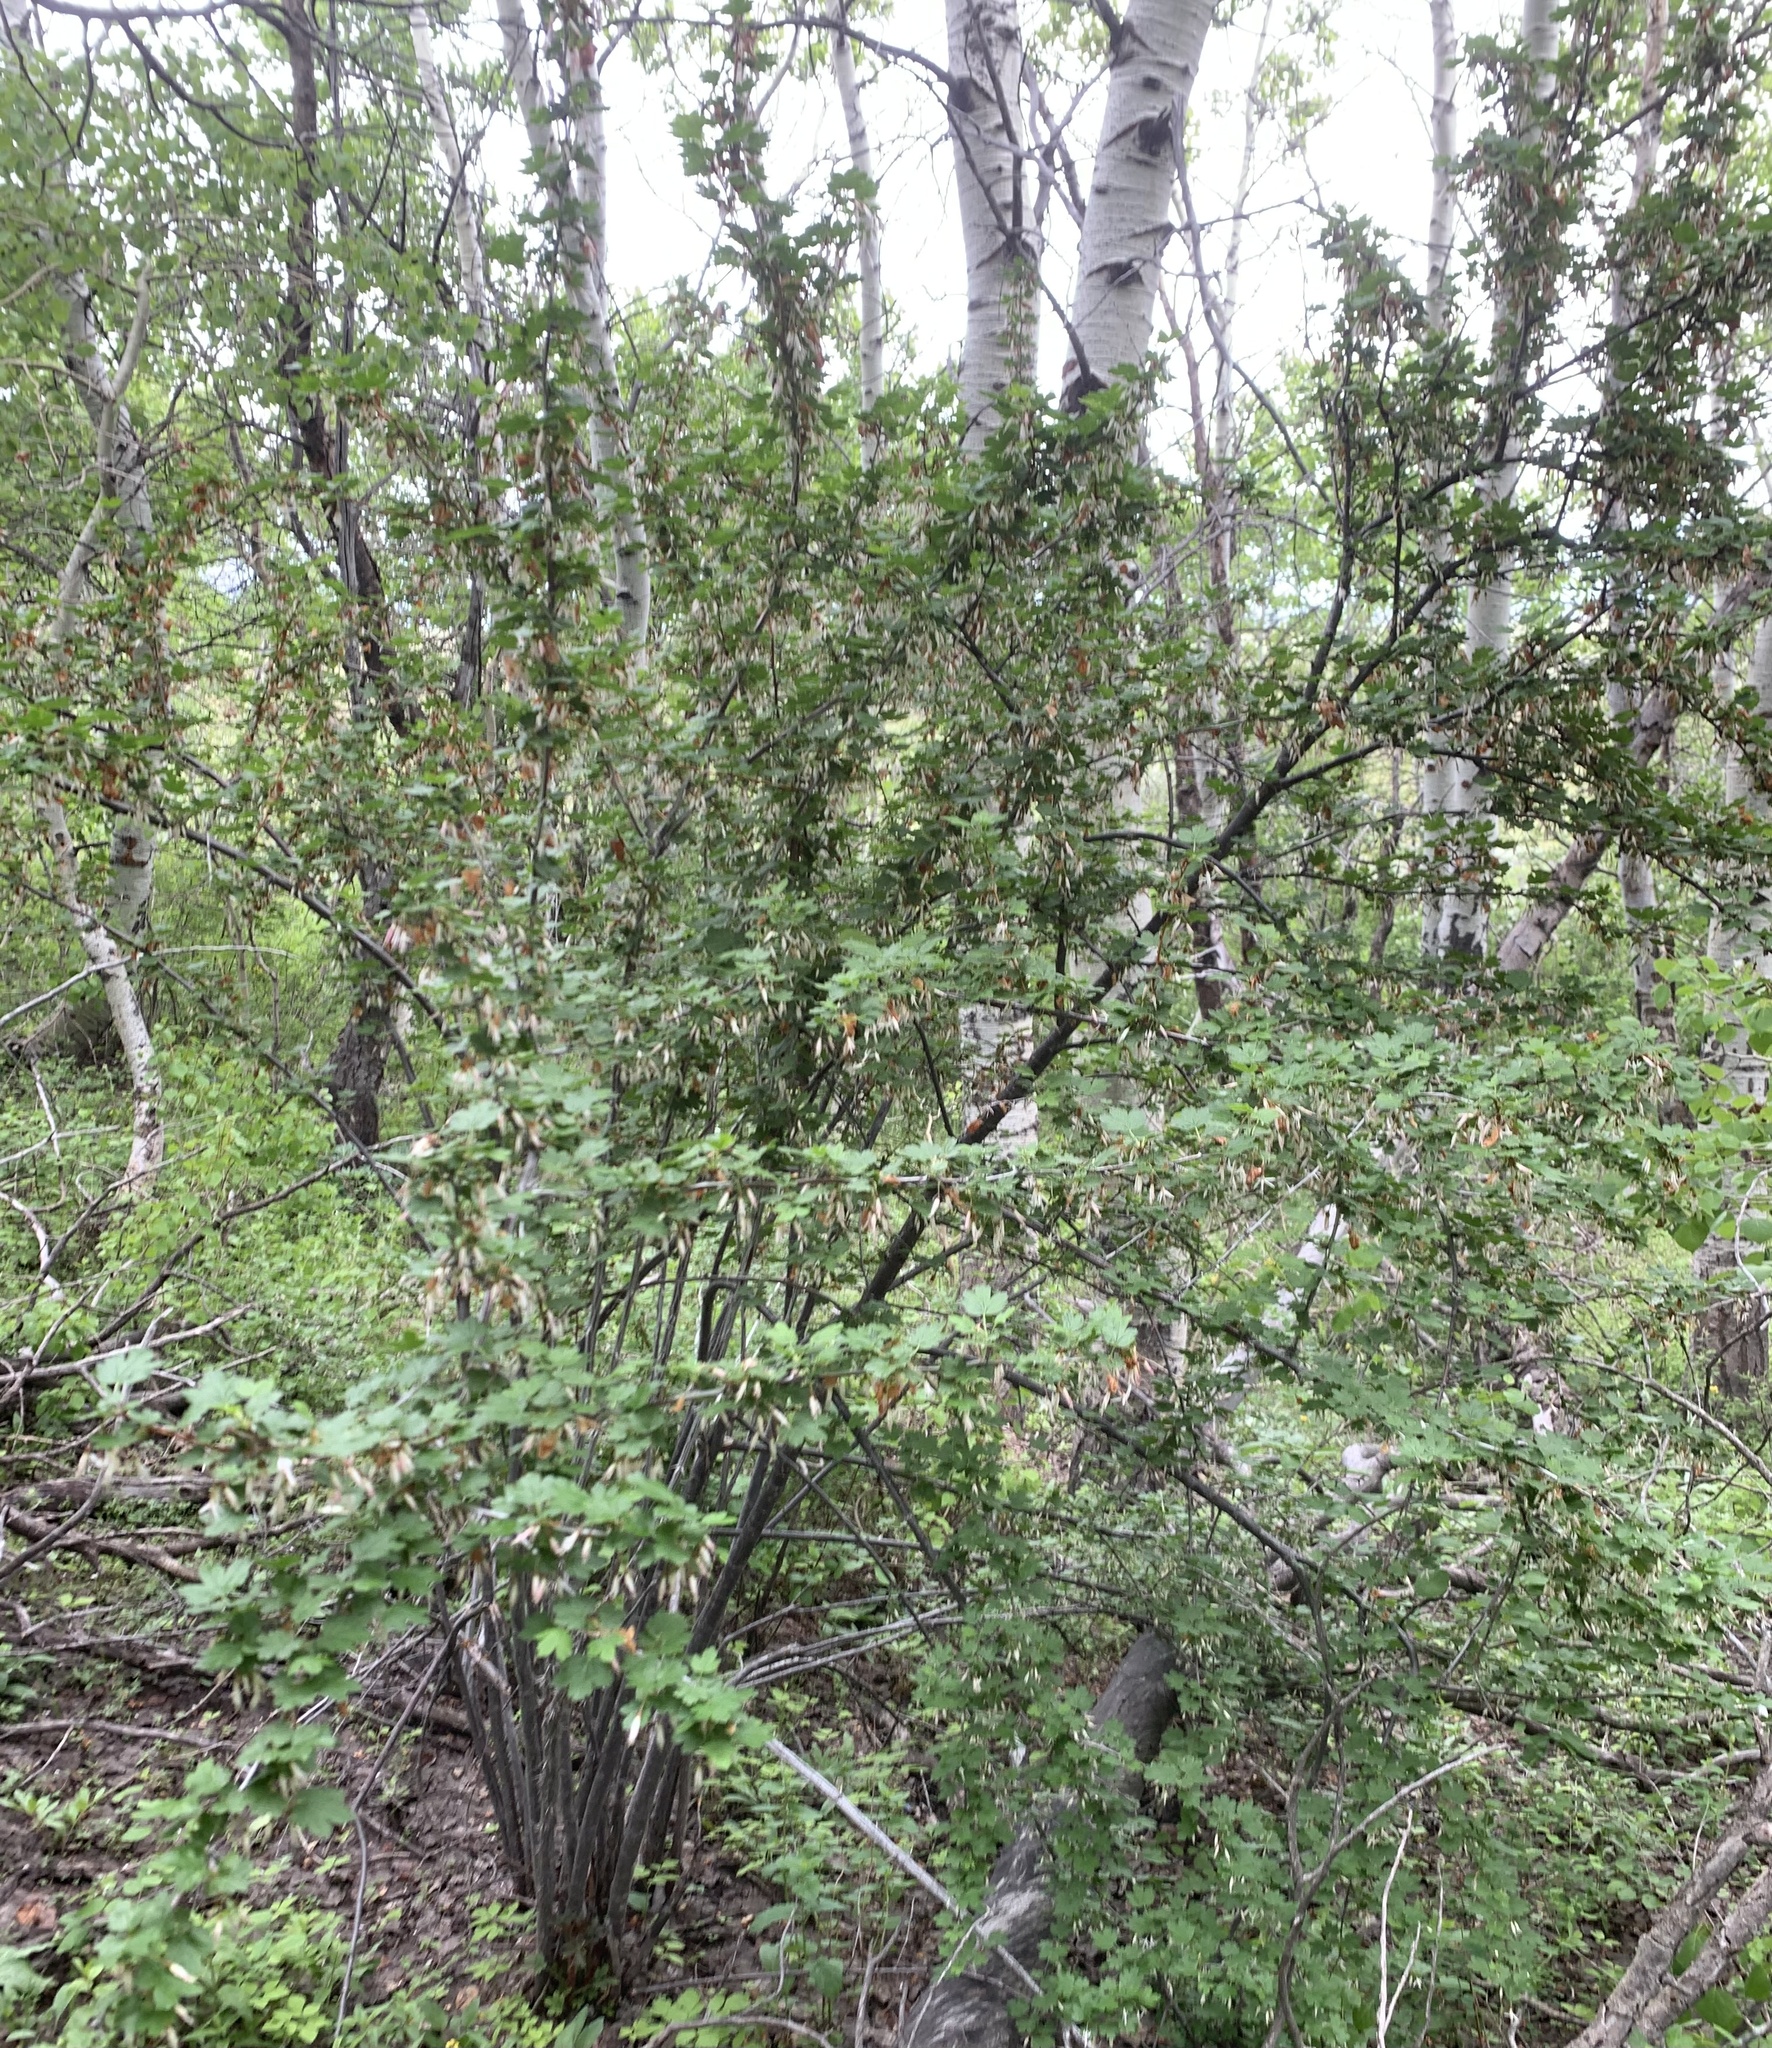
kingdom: Plantae
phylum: Tracheophyta
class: Magnoliopsida
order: Saxifragales
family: Grossulariaceae
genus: Ribes
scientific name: Ribes niveum
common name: Snake river gooseberry
